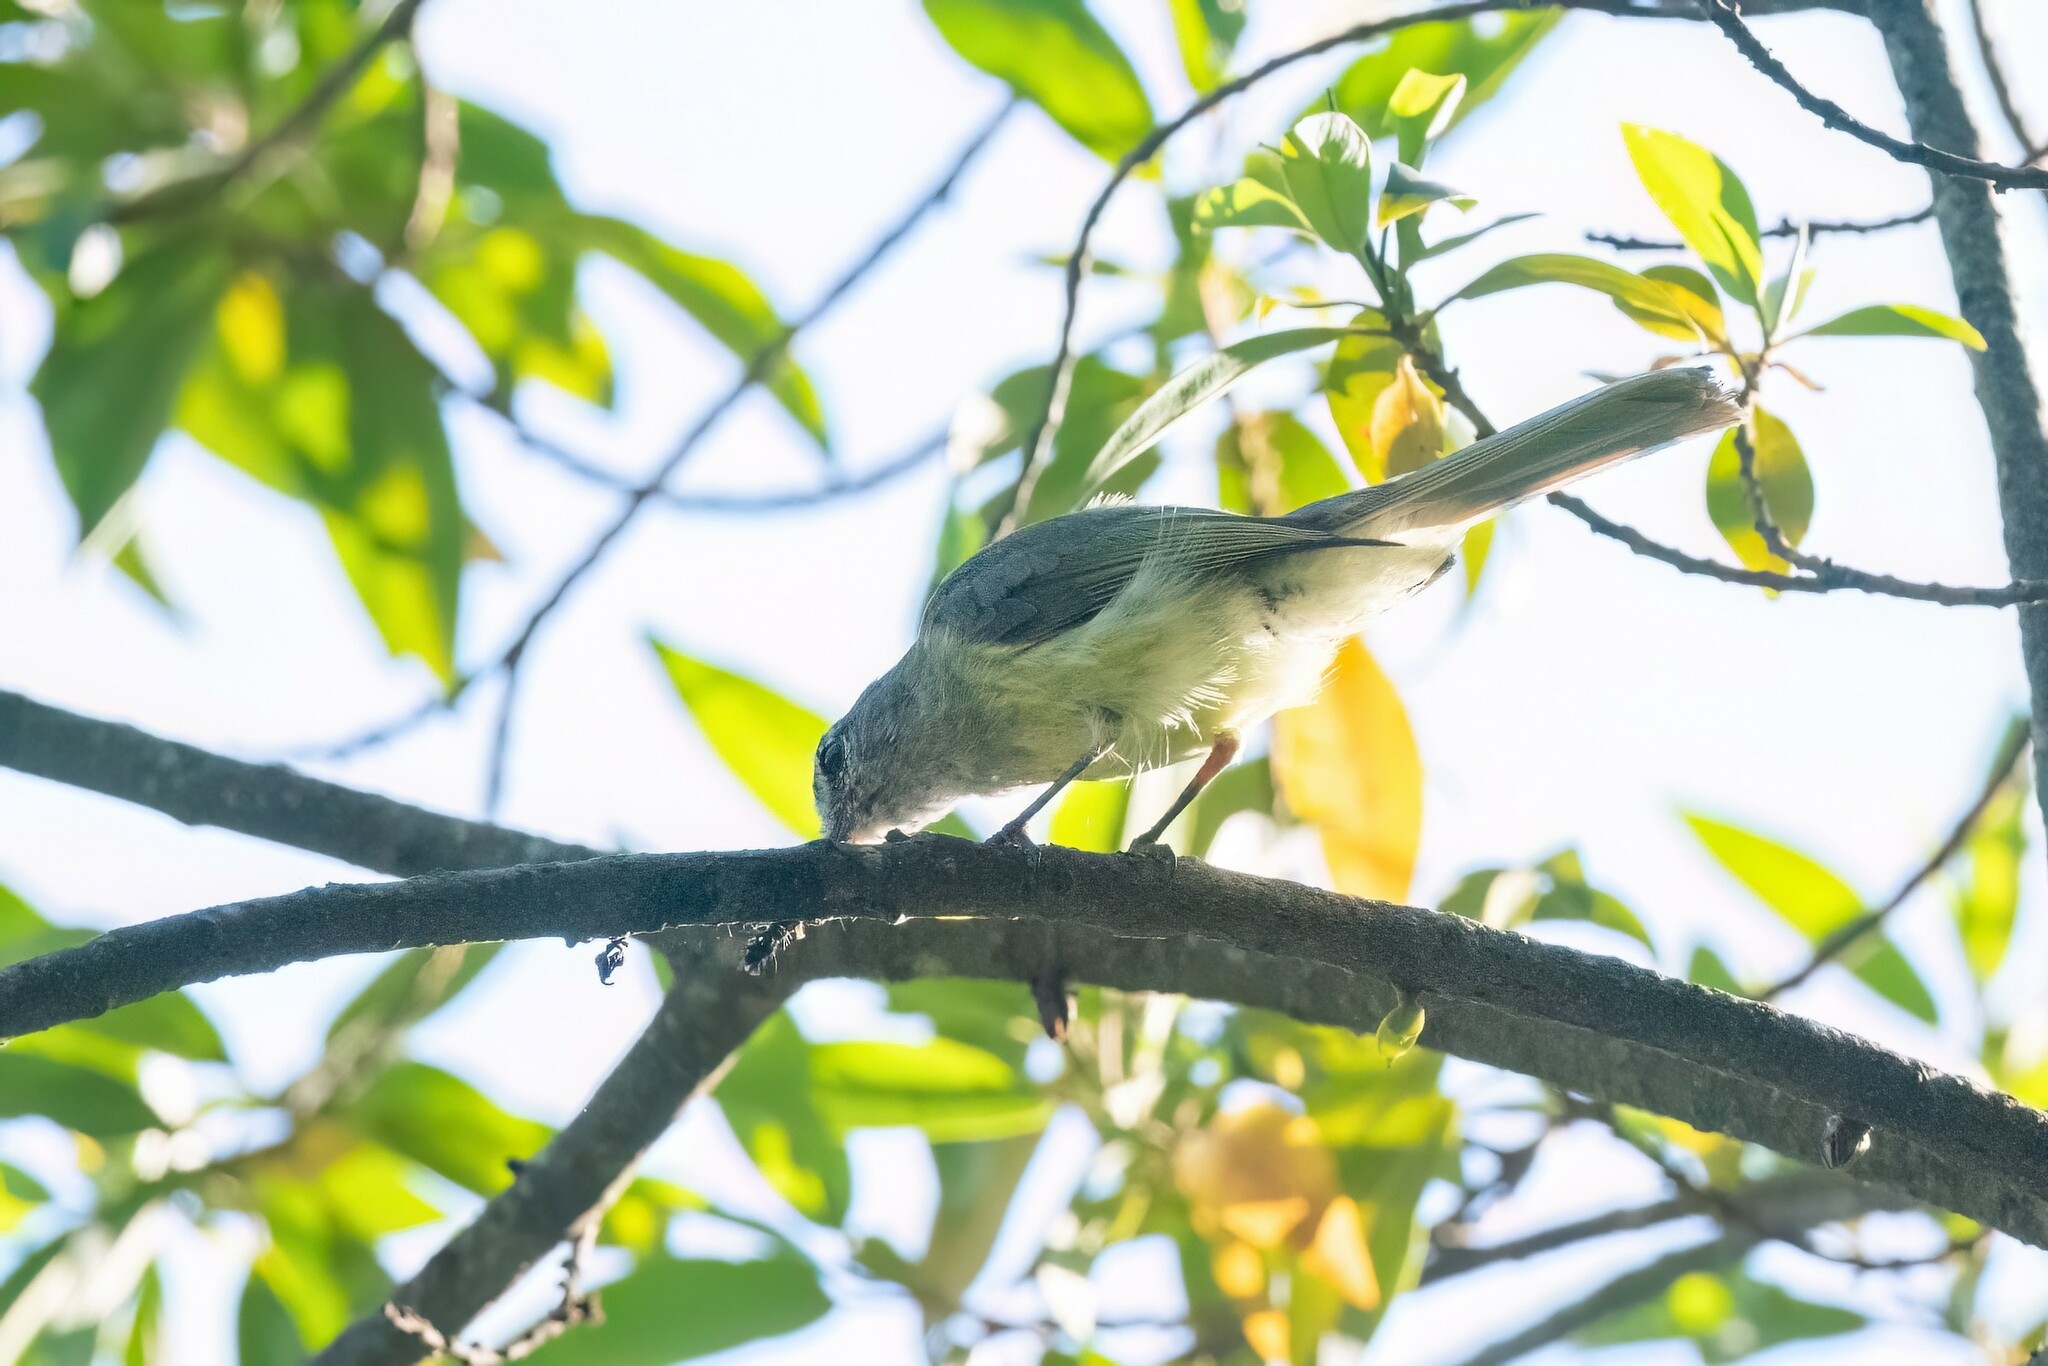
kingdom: Animalia
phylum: Chordata
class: Aves
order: Passeriformes
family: Tyrannidae
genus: Myiopagis
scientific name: Myiopagis viridicata
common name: Greenish elaenia
